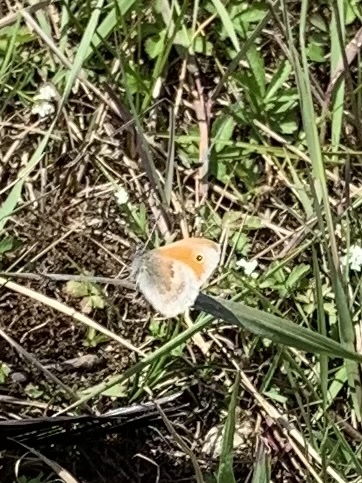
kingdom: Animalia
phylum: Arthropoda
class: Insecta
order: Lepidoptera
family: Nymphalidae
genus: Coenonympha
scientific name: Coenonympha pamphilus
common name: Small heath
